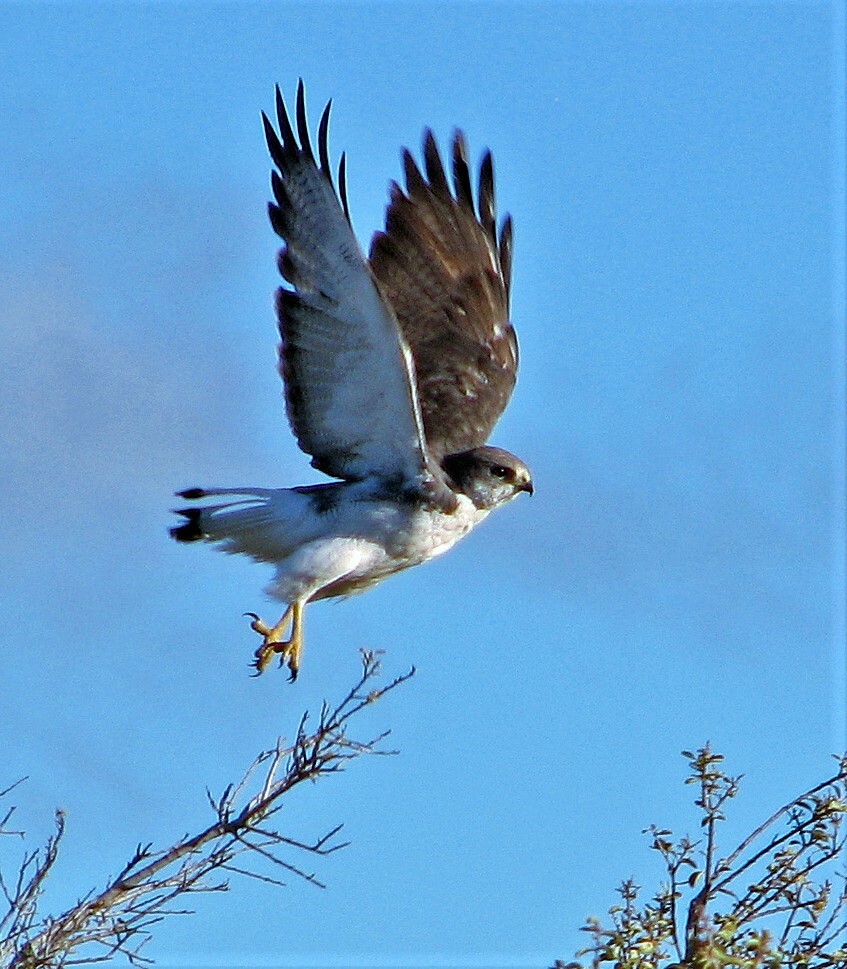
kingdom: Animalia
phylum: Chordata
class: Aves
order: Accipitriformes
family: Accipitridae
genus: Buteo
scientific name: Buteo polyosoma
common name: Variable hawk
